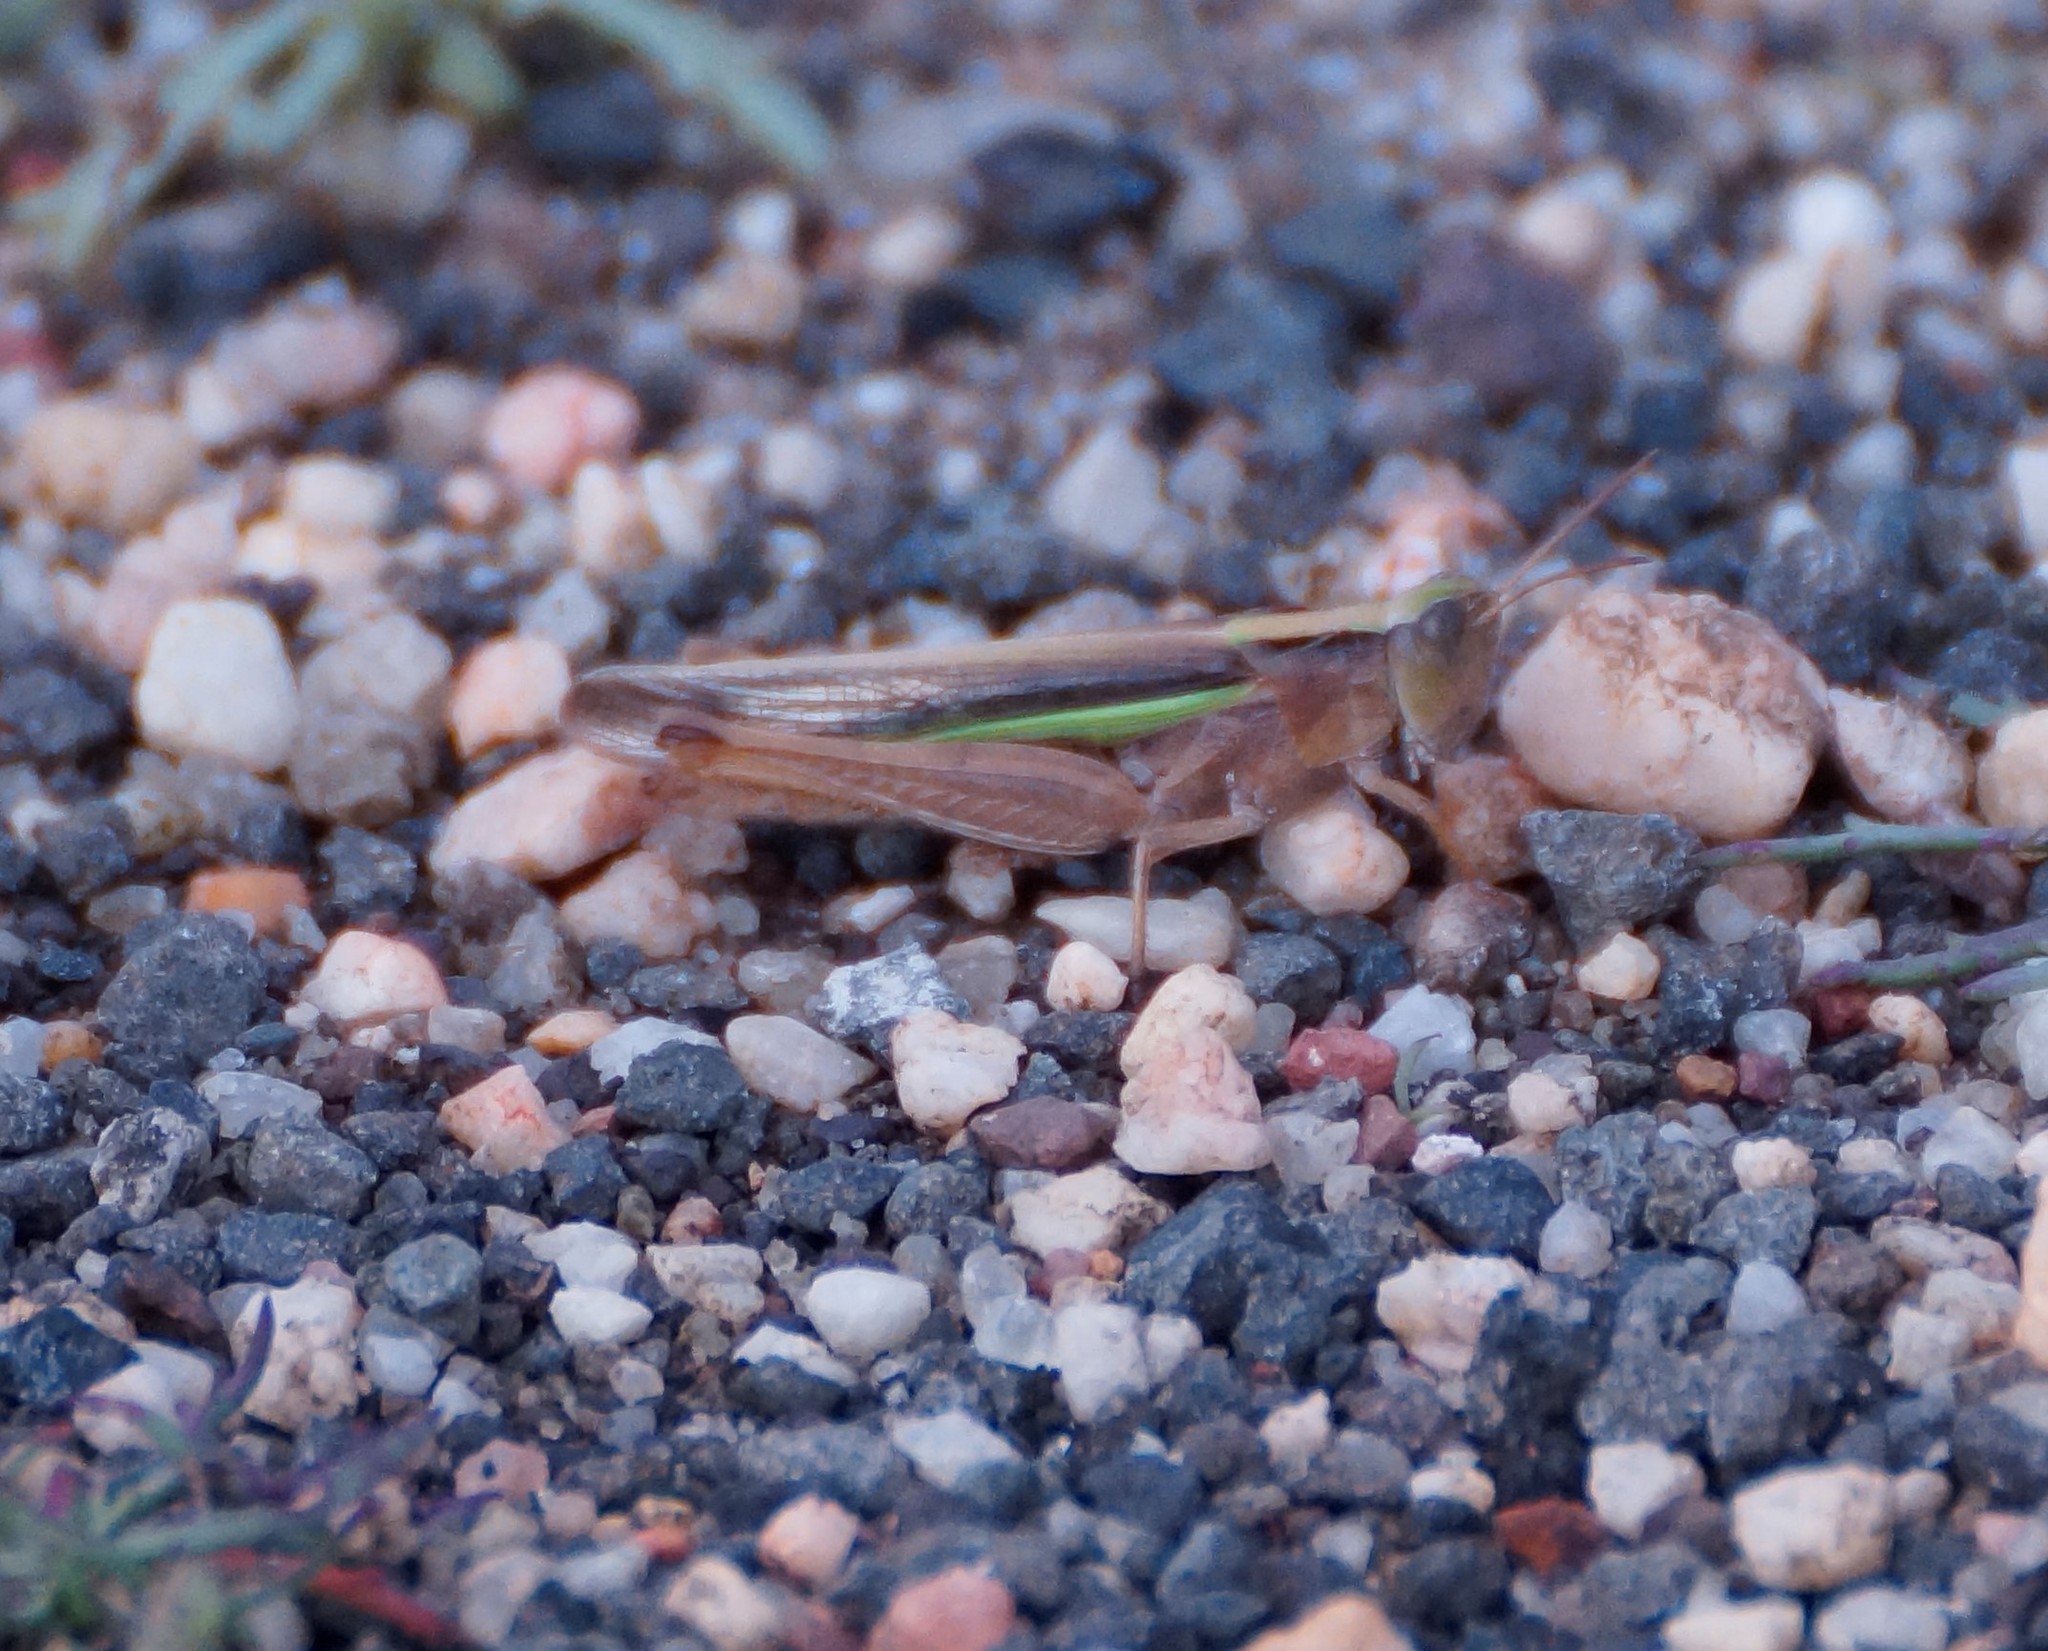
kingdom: Animalia
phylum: Arthropoda
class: Insecta
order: Orthoptera
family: Acrididae
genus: Schizobothrus
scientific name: Schizobothrus flavovittatus
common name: Disappearing grasshopper
